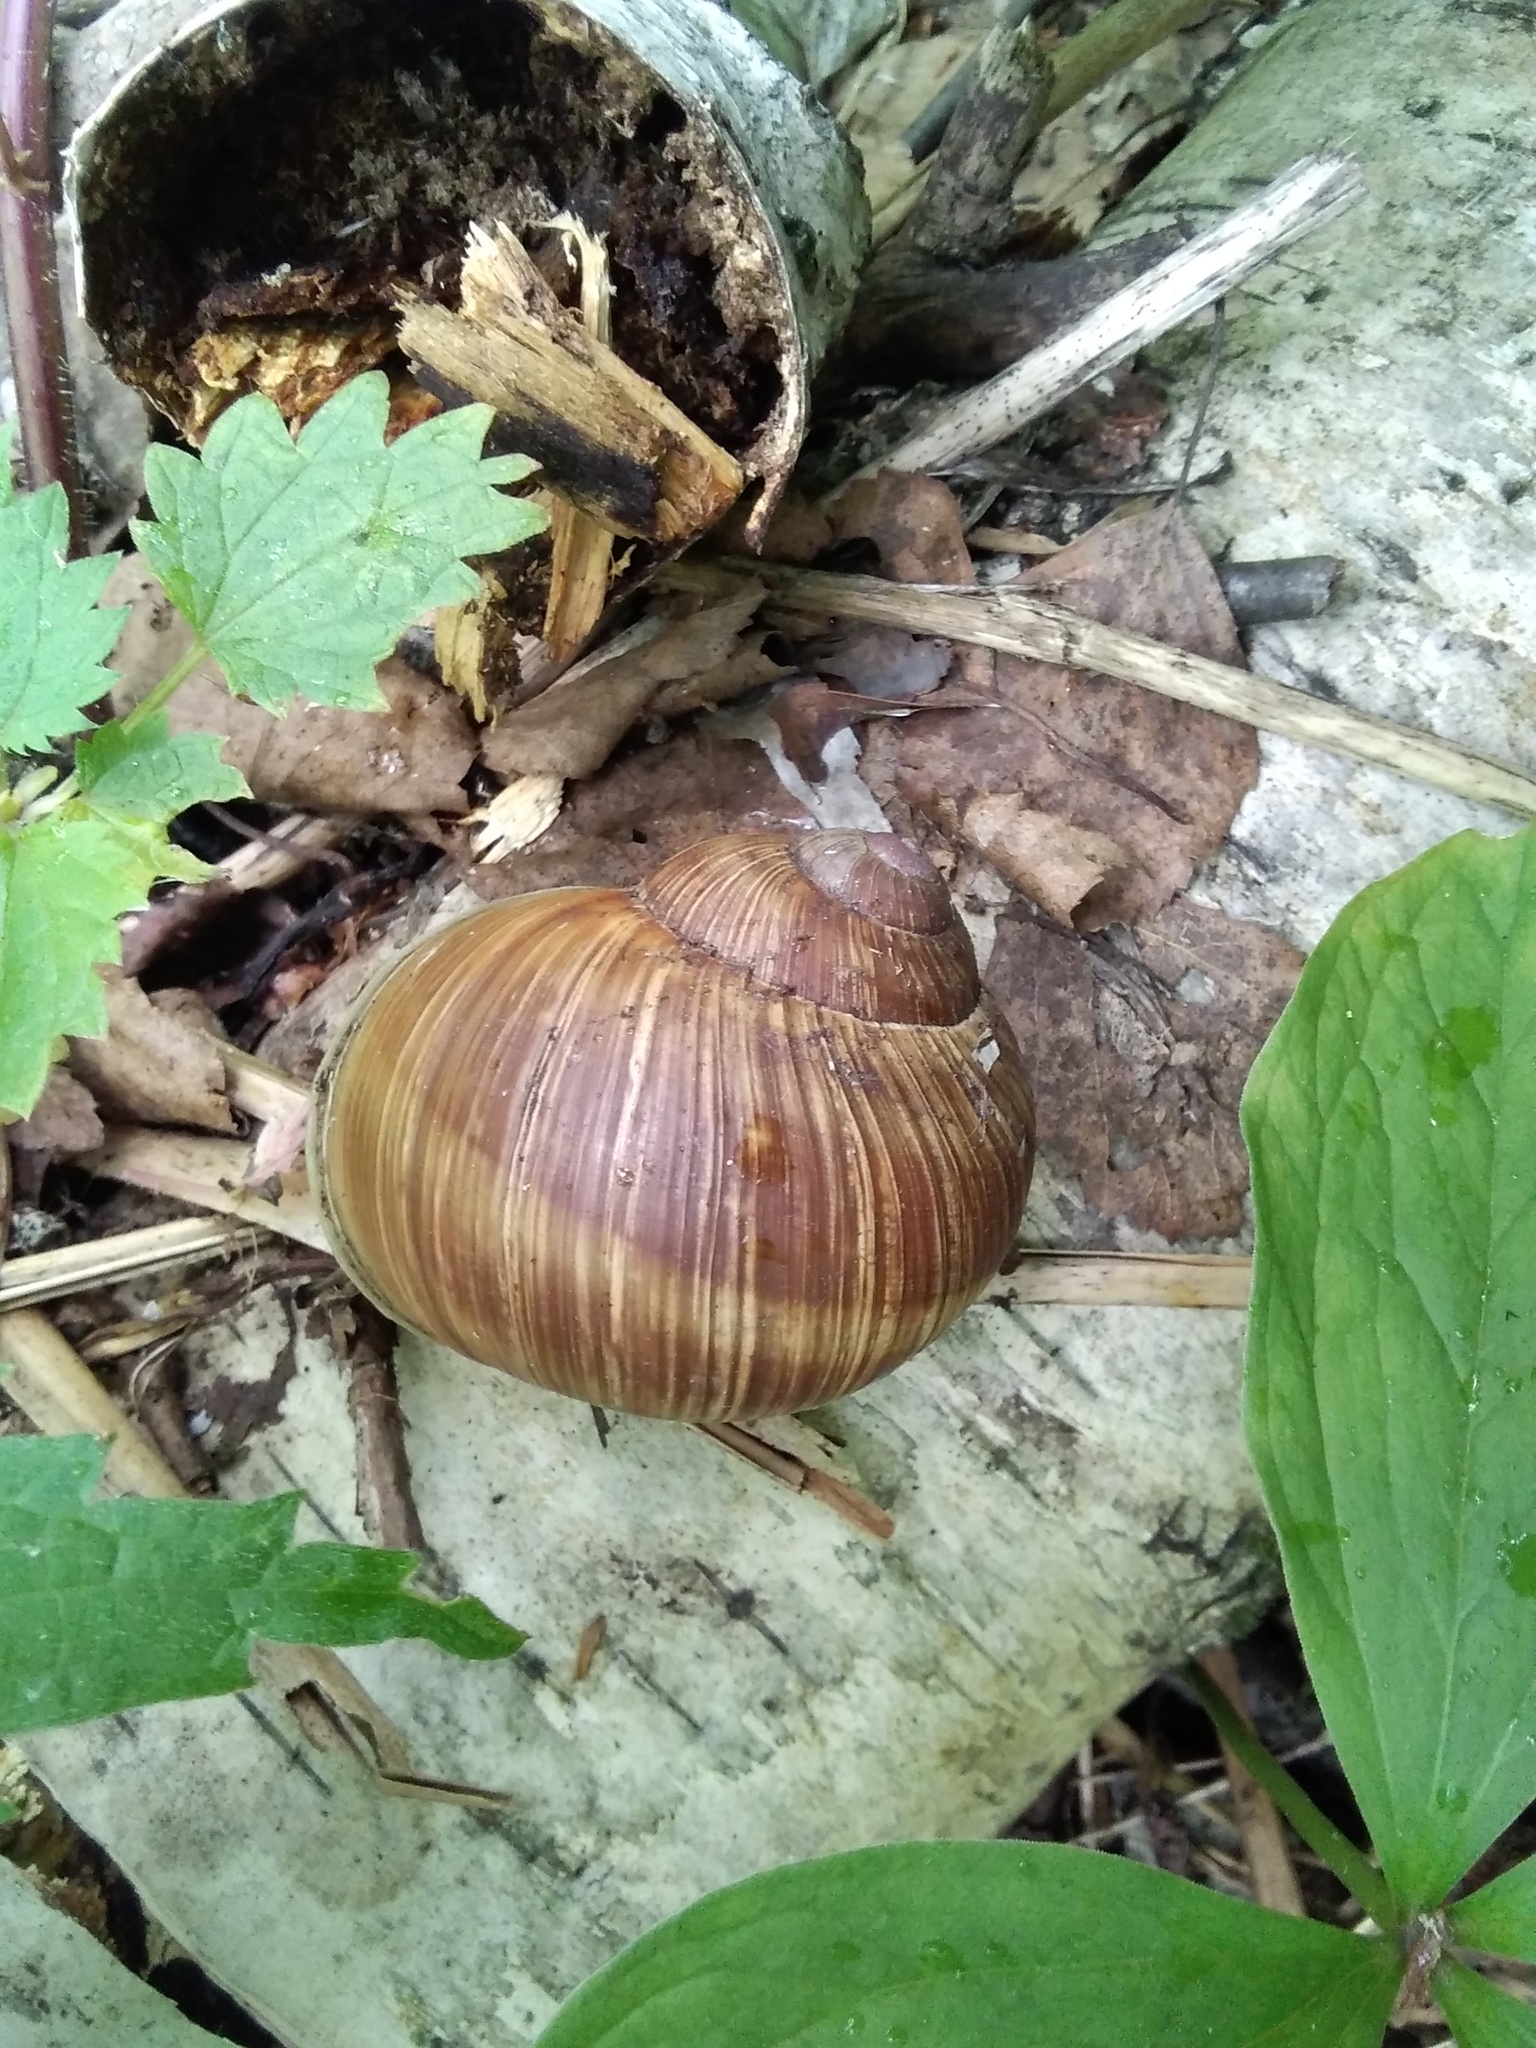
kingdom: Animalia
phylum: Mollusca
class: Gastropoda
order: Stylommatophora
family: Helicidae
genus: Helix
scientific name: Helix pomatia
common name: Roman snail
